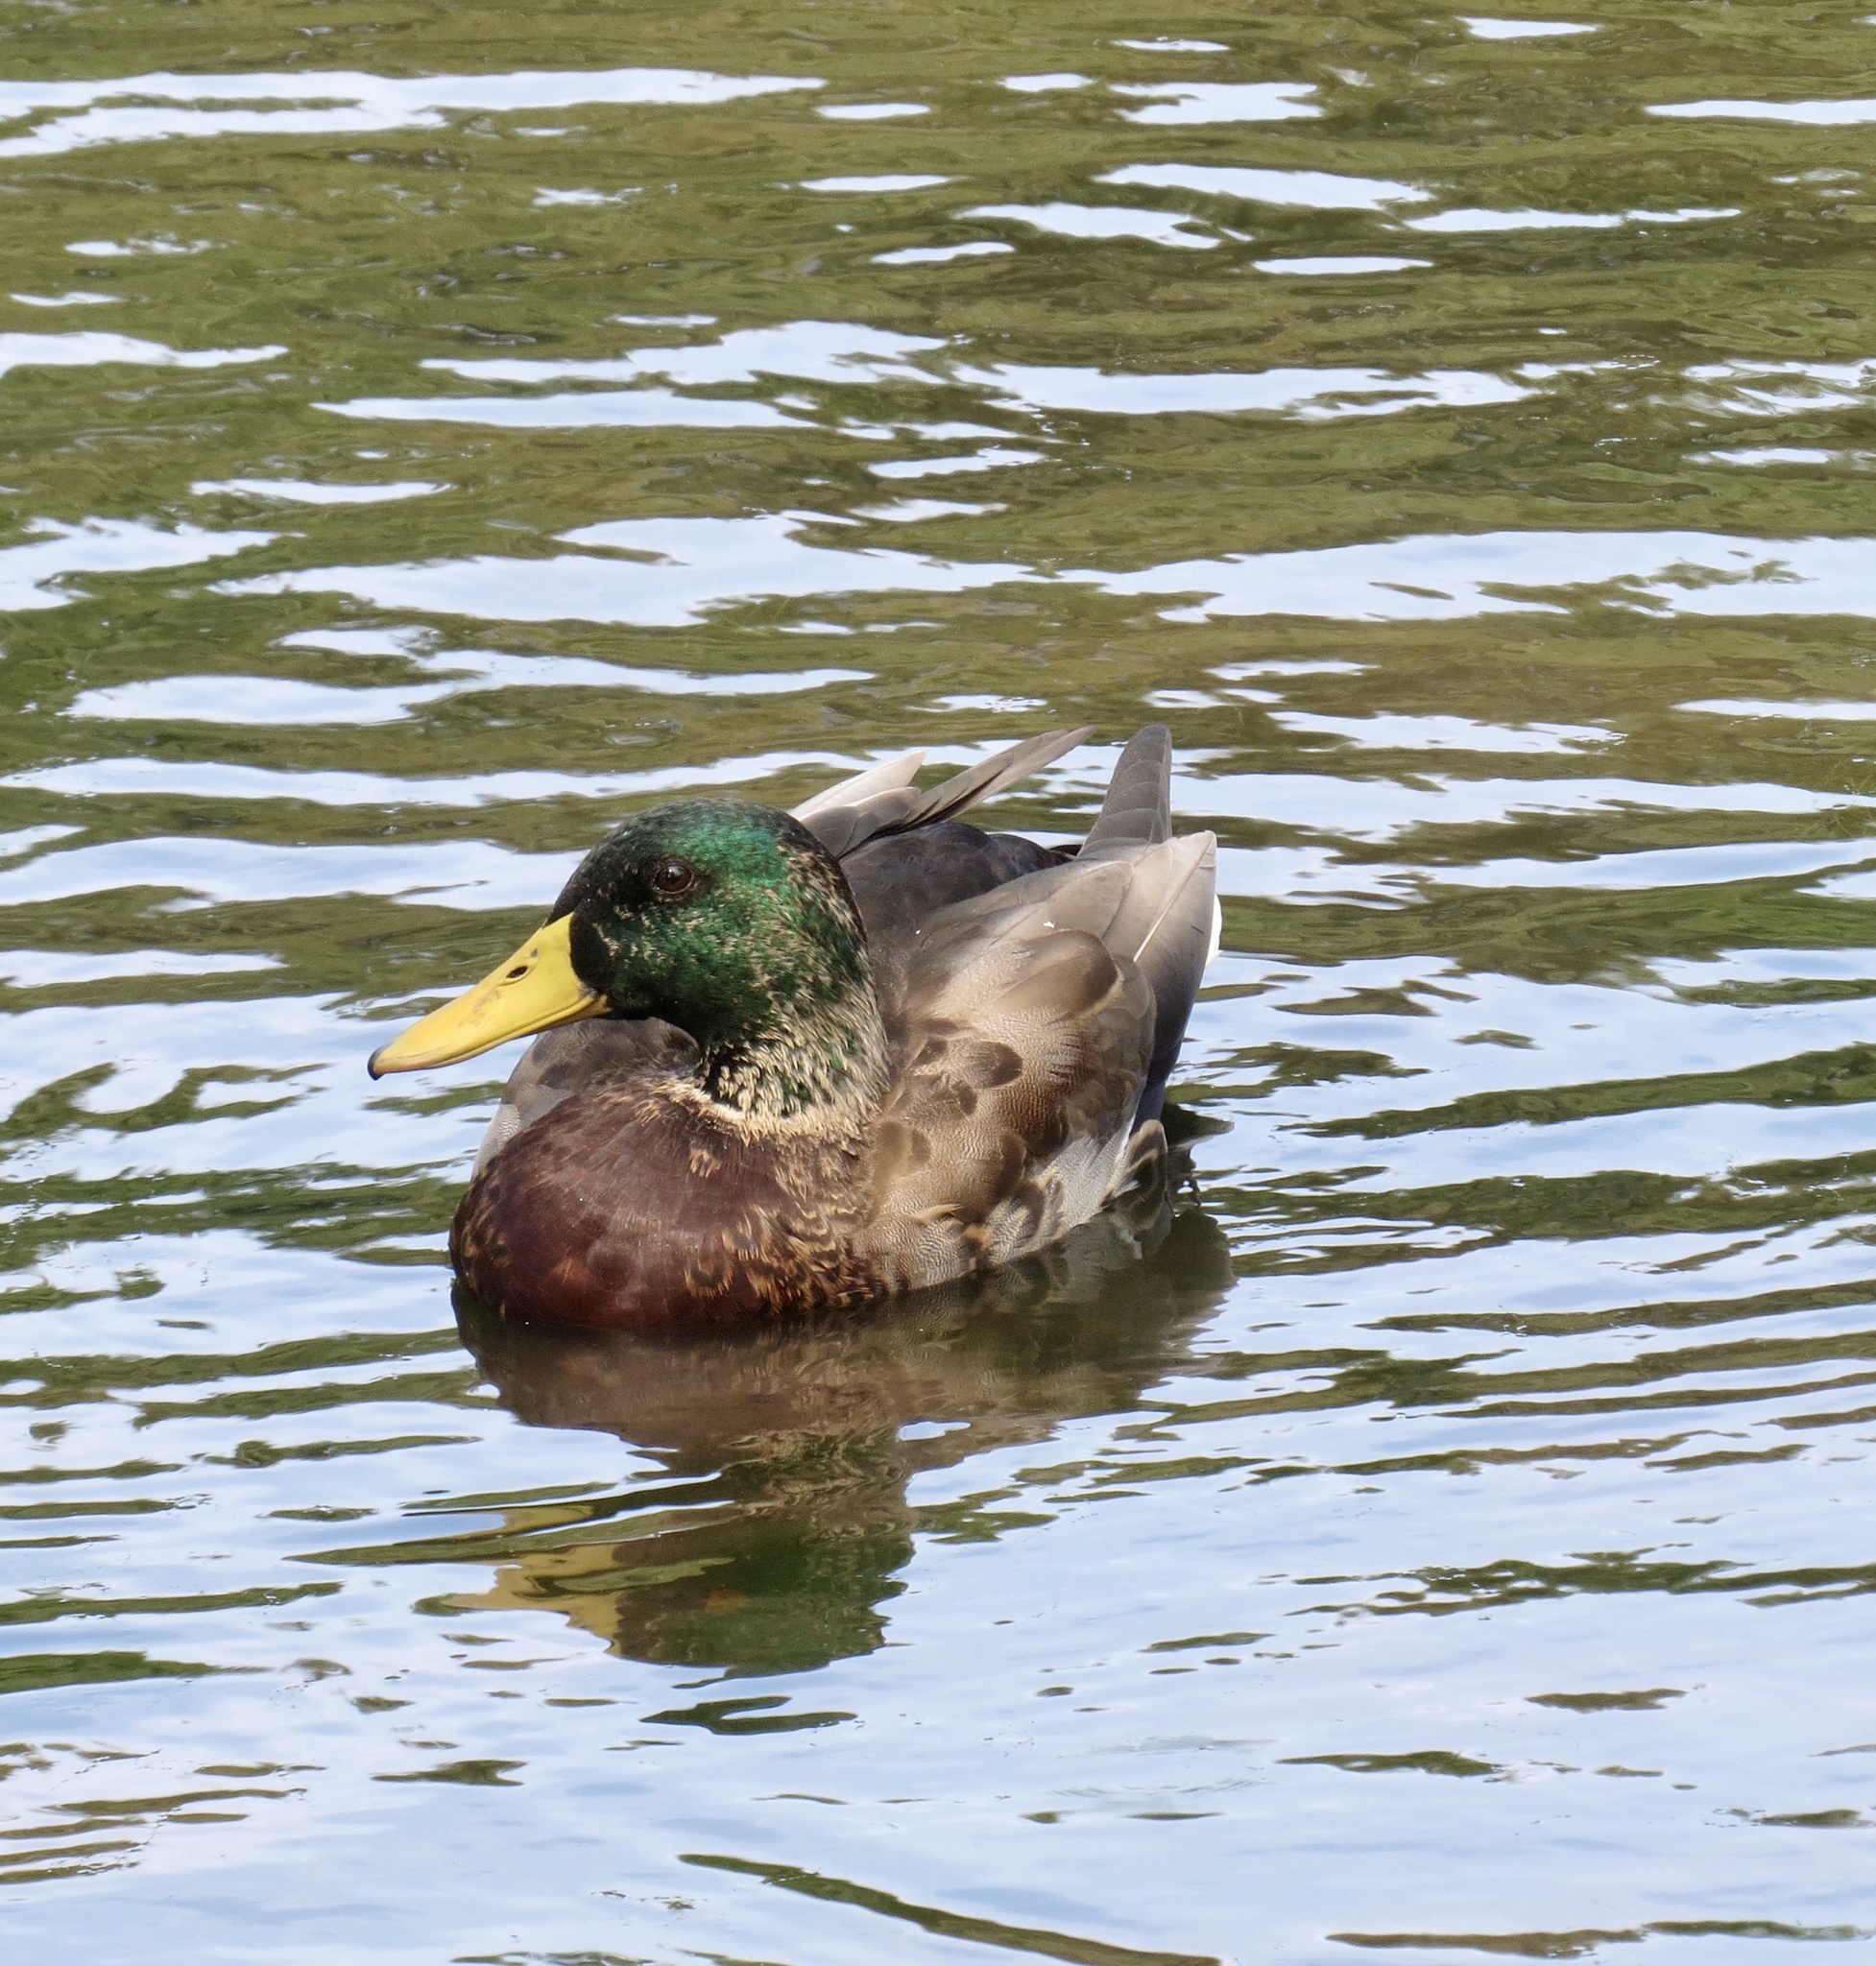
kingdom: Animalia
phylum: Chordata
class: Aves
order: Anseriformes
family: Anatidae
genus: Anas
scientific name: Anas platyrhynchos
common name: Mallard
